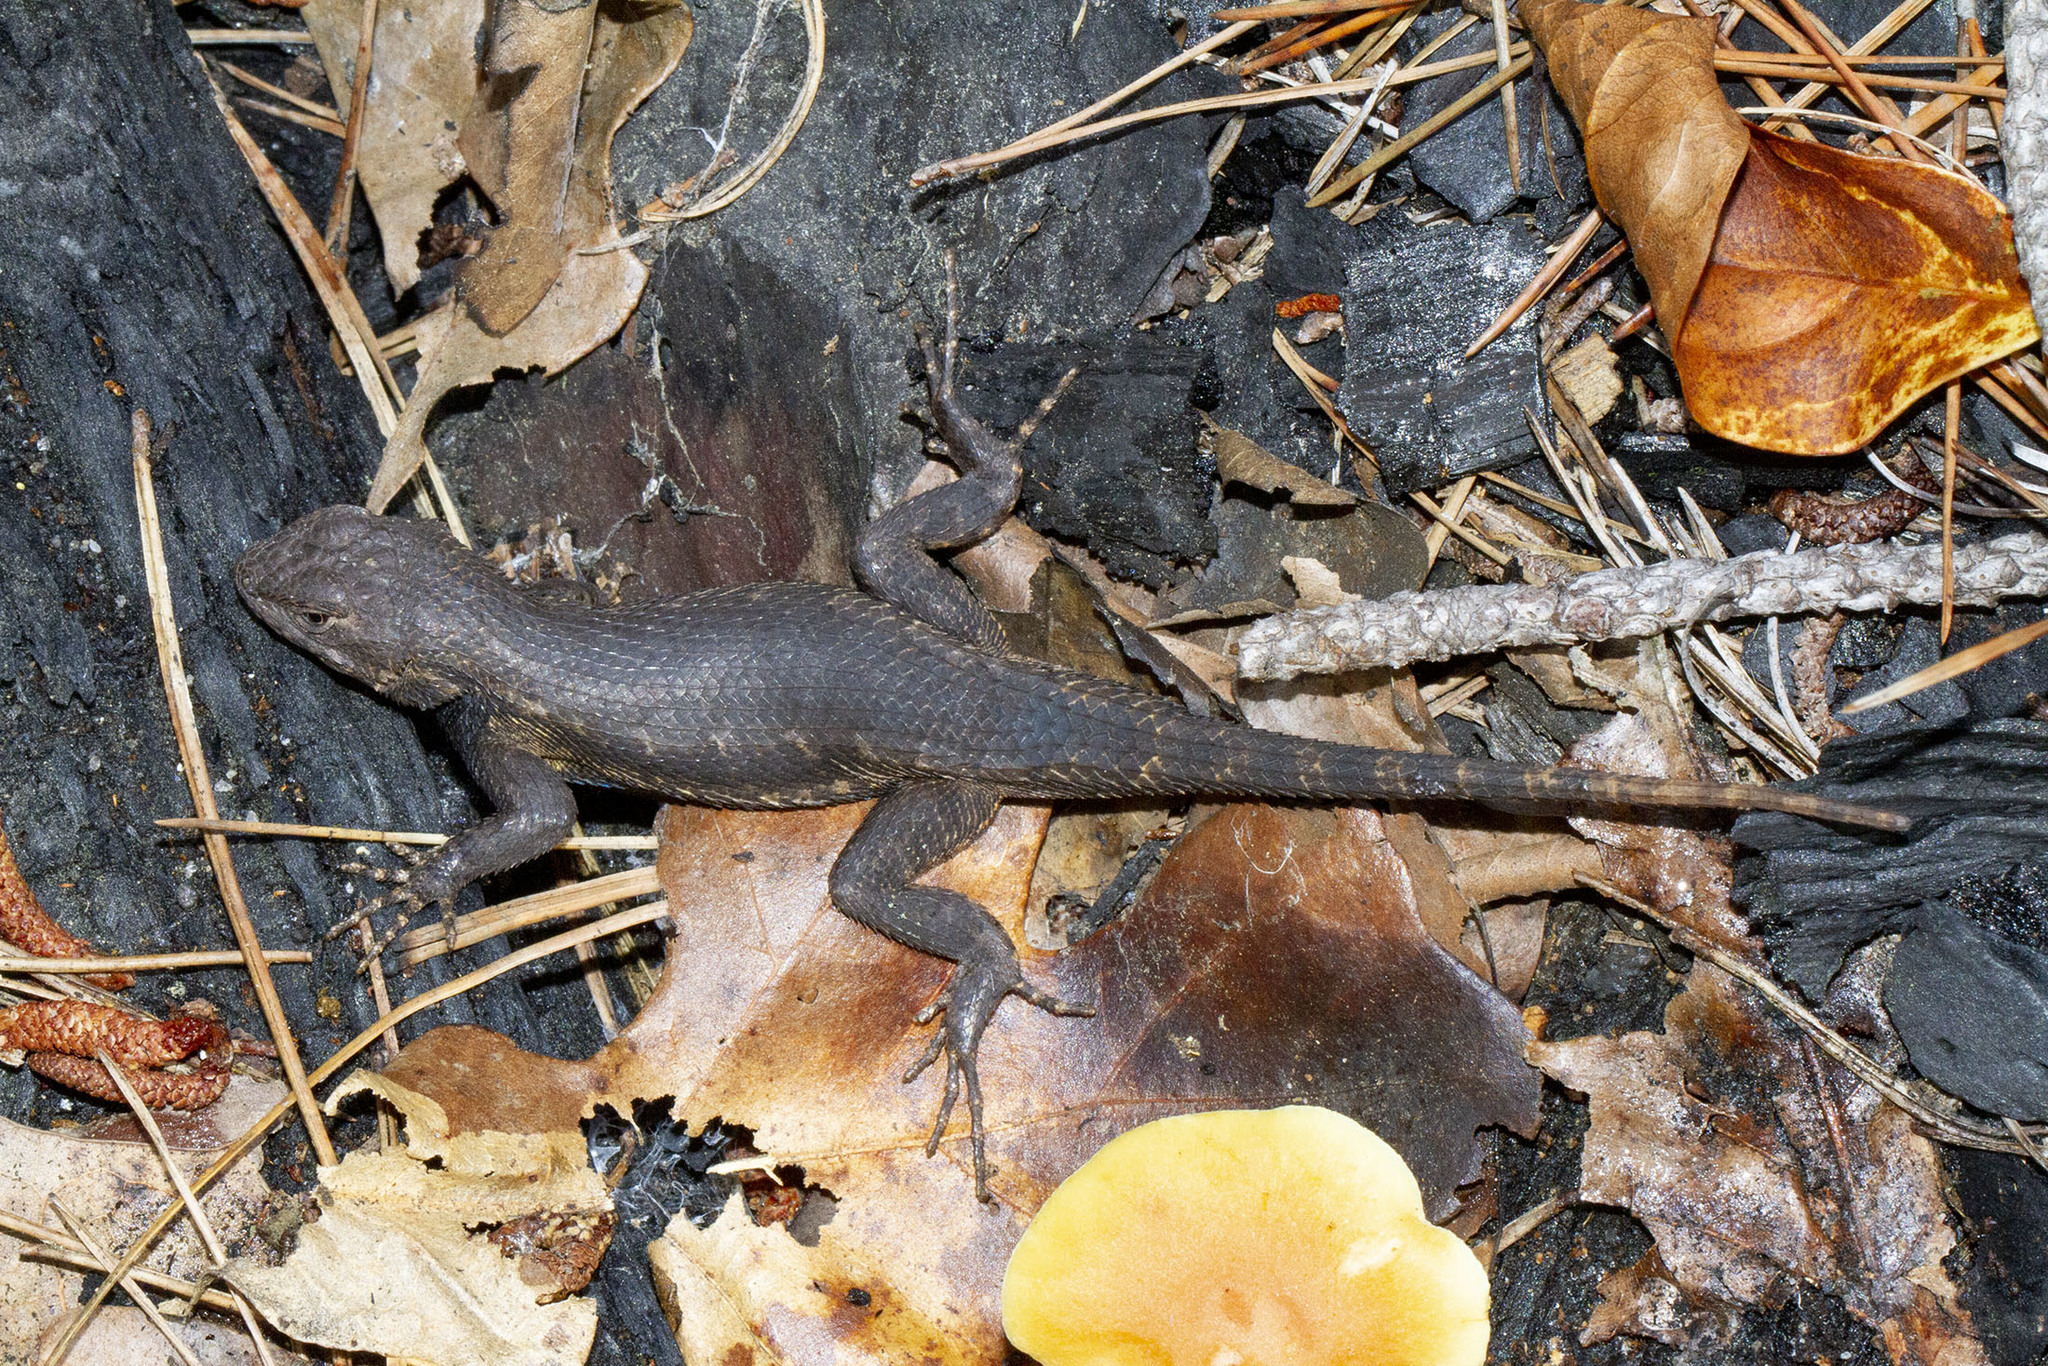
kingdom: Animalia
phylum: Chordata
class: Squamata
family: Phrynosomatidae
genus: Sceloporus
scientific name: Sceloporus undulatus
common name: Eastern fence lizard
